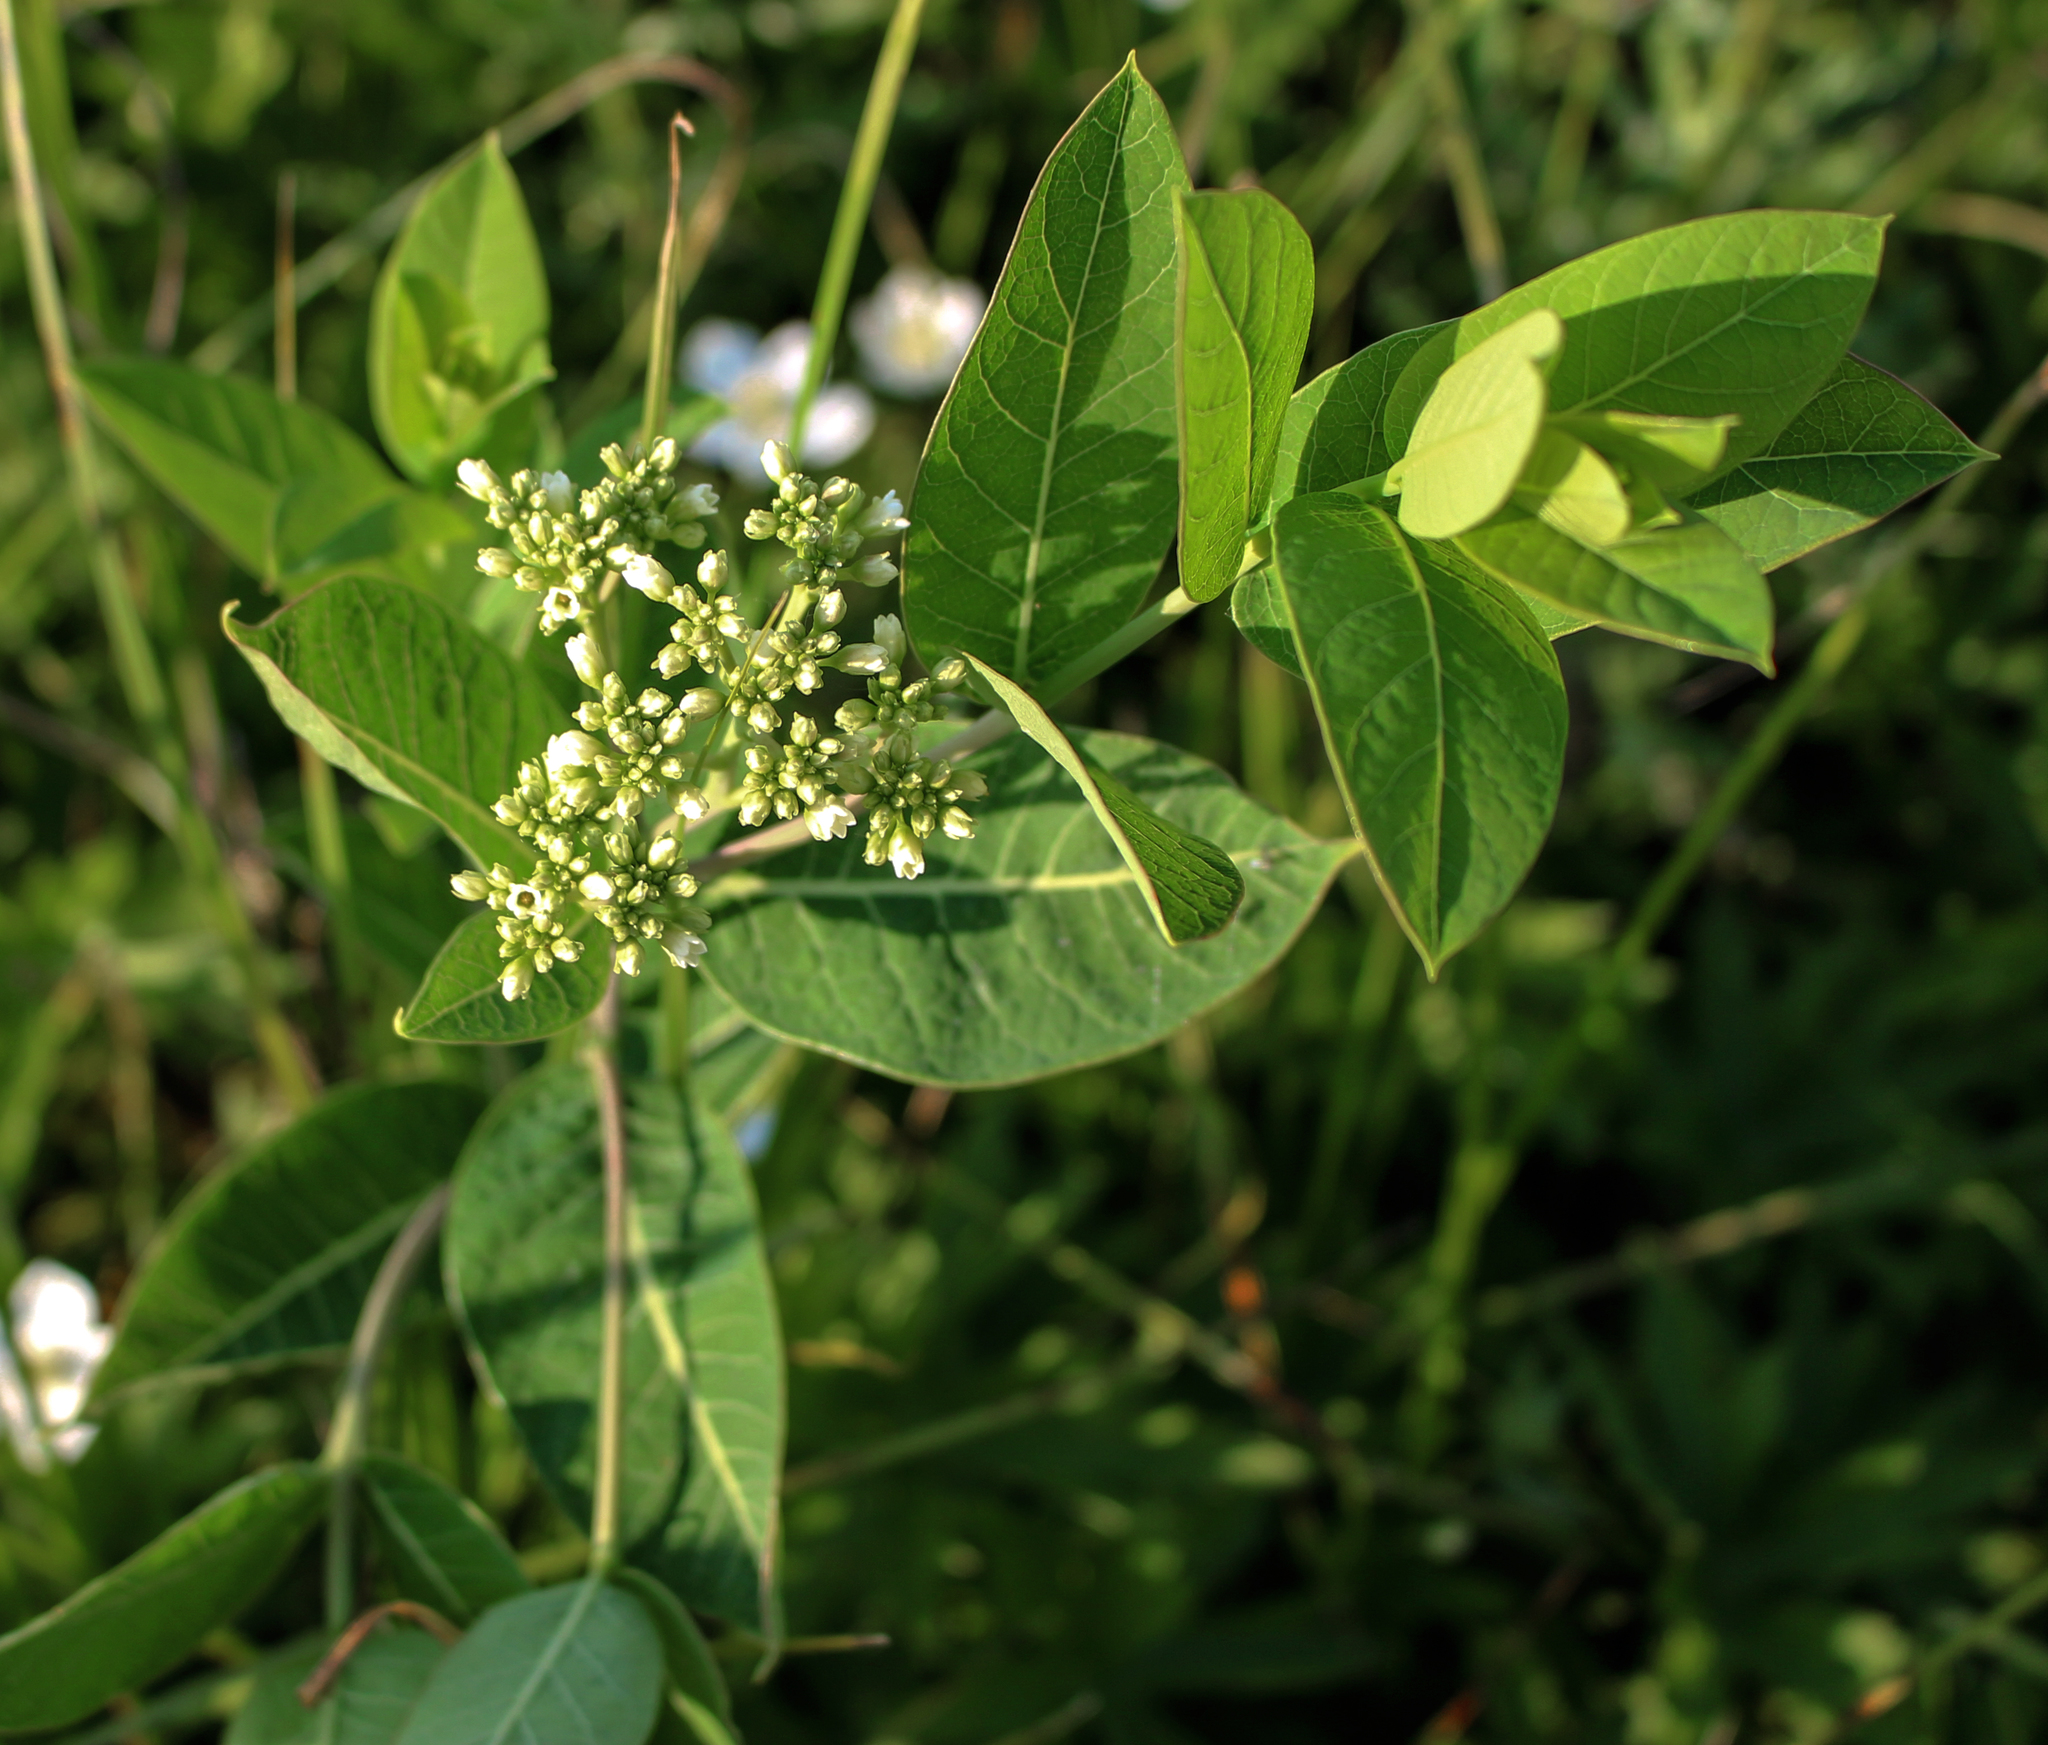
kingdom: Plantae
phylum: Tracheophyta
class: Magnoliopsida
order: Gentianales
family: Apocynaceae
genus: Apocynum
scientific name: Apocynum cannabinum
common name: Hemp dogbane
